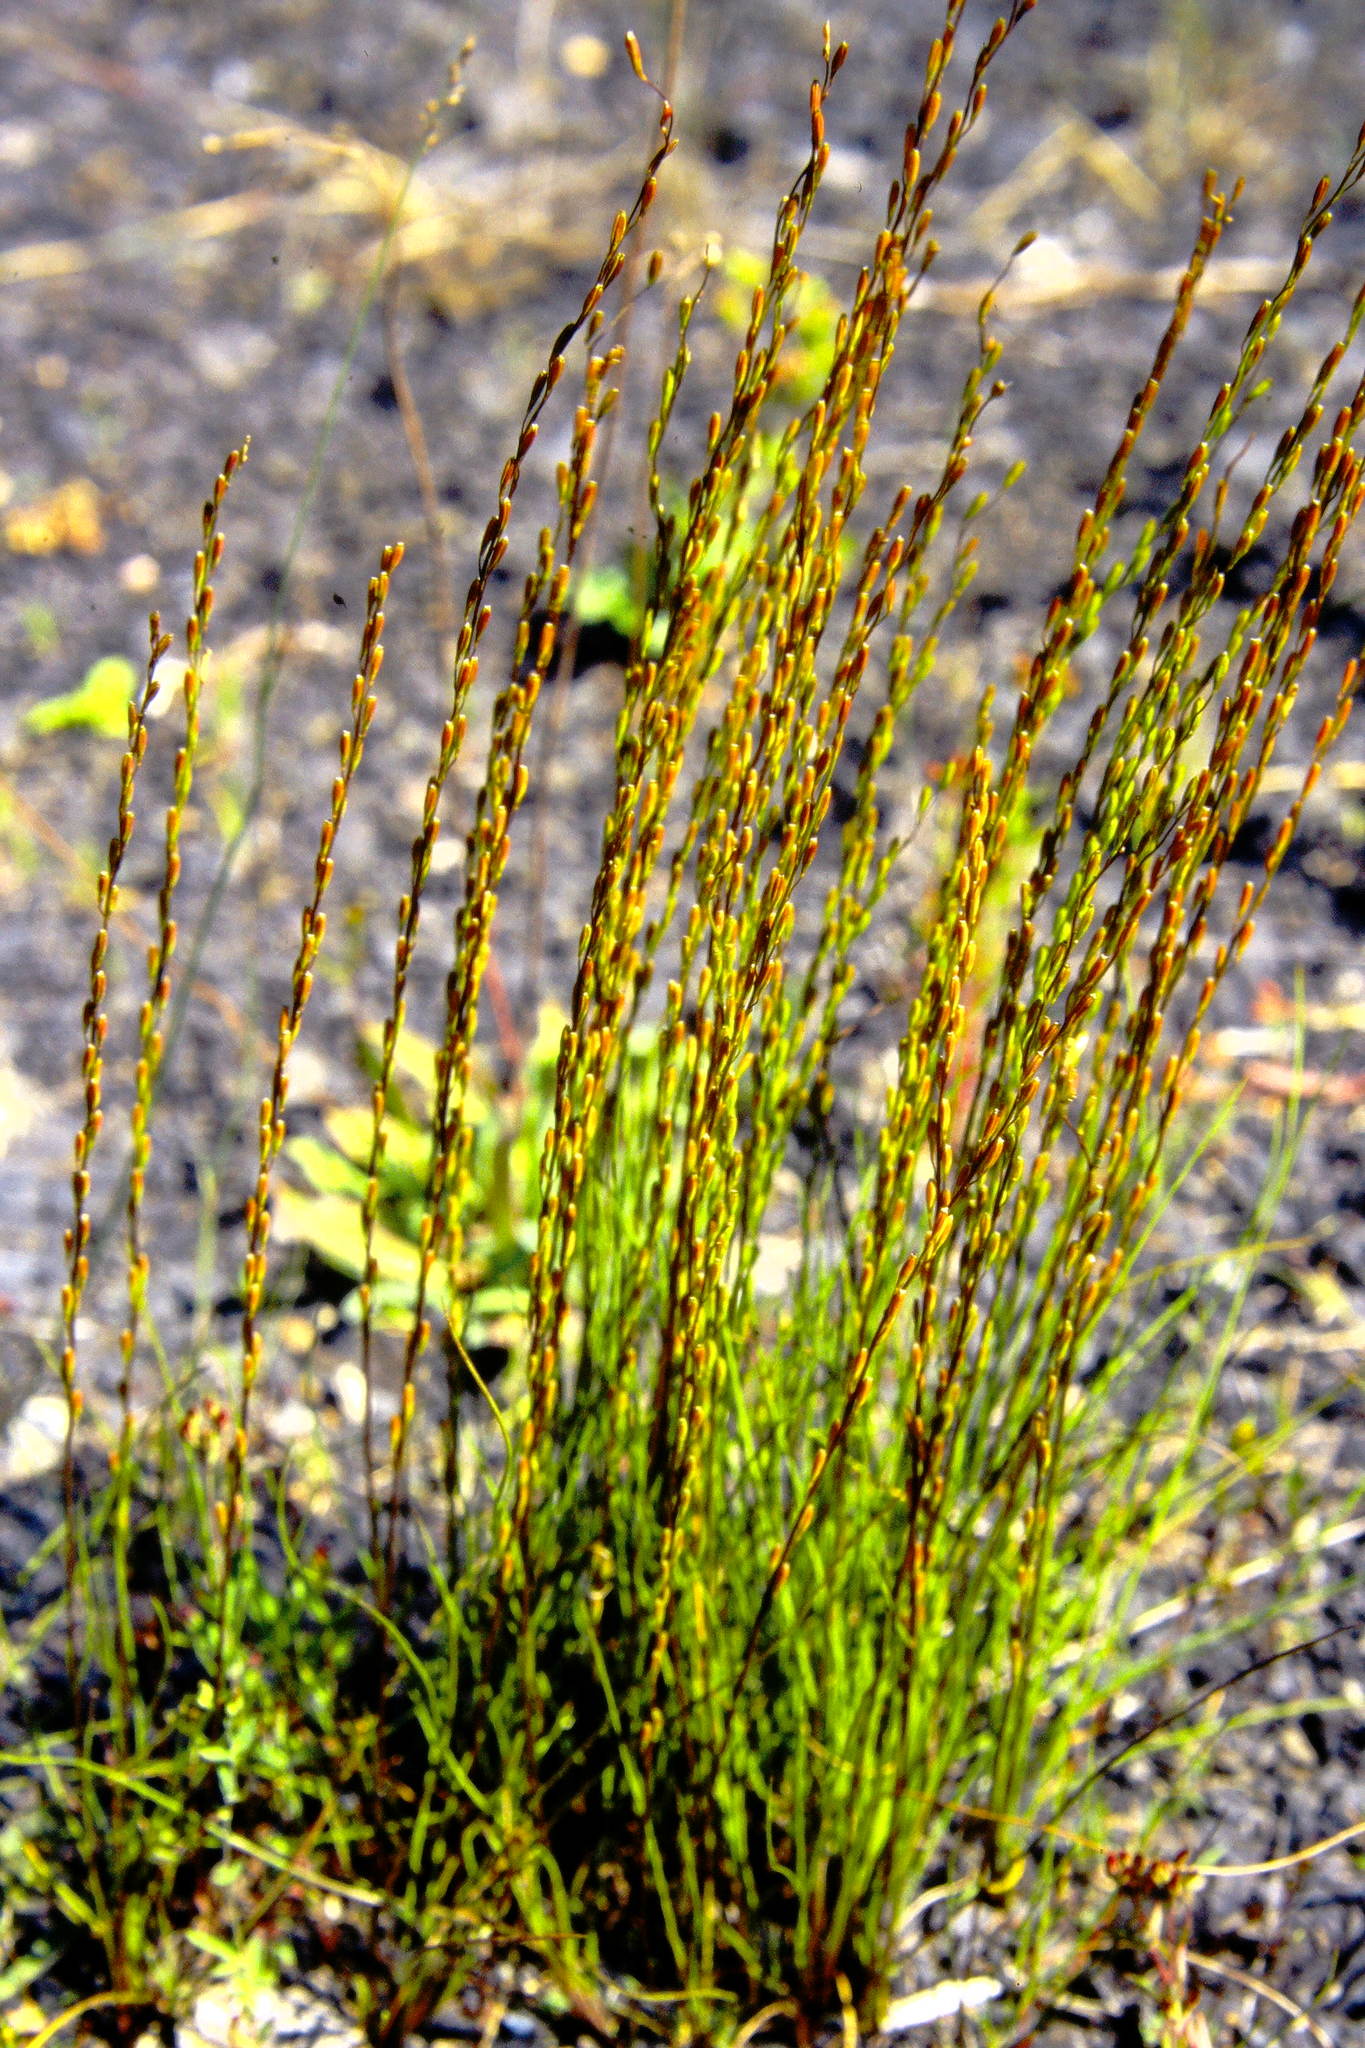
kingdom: Plantae
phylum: Tracheophyta
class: Liliopsida
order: Alismatales
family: Juncaginaceae
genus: Triglochin
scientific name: Triglochin palustris
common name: Marsh arrowgrass
